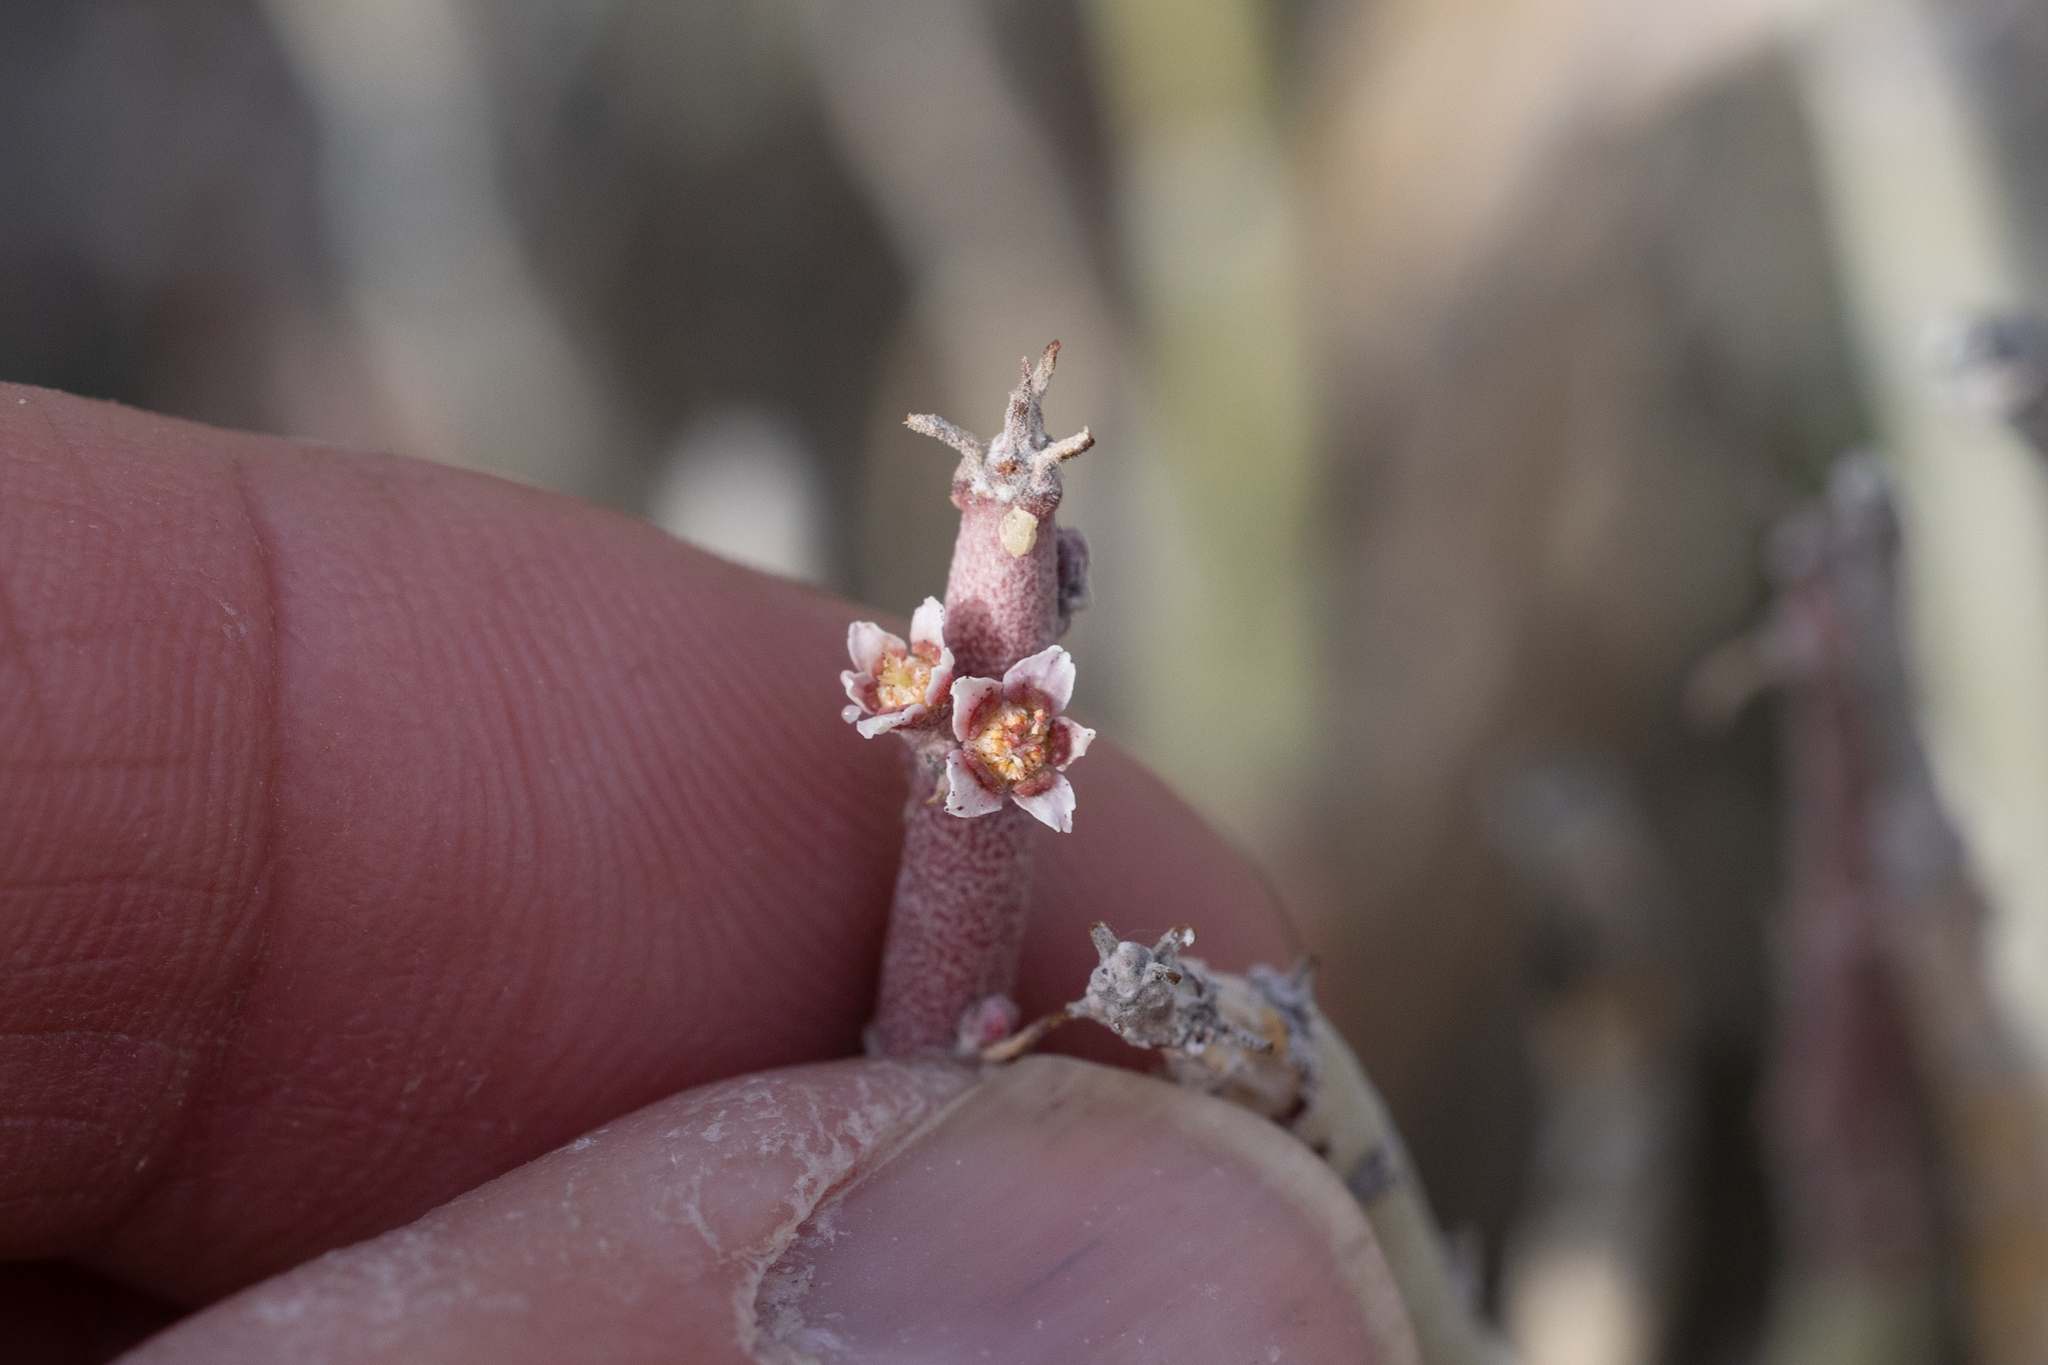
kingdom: Plantae
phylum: Tracheophyta
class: Magnoliopsida
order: Malpighiales
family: Euphorbiaceae
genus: Euphorbia
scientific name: Euphorbia antisyphilitica
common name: Candelilla
